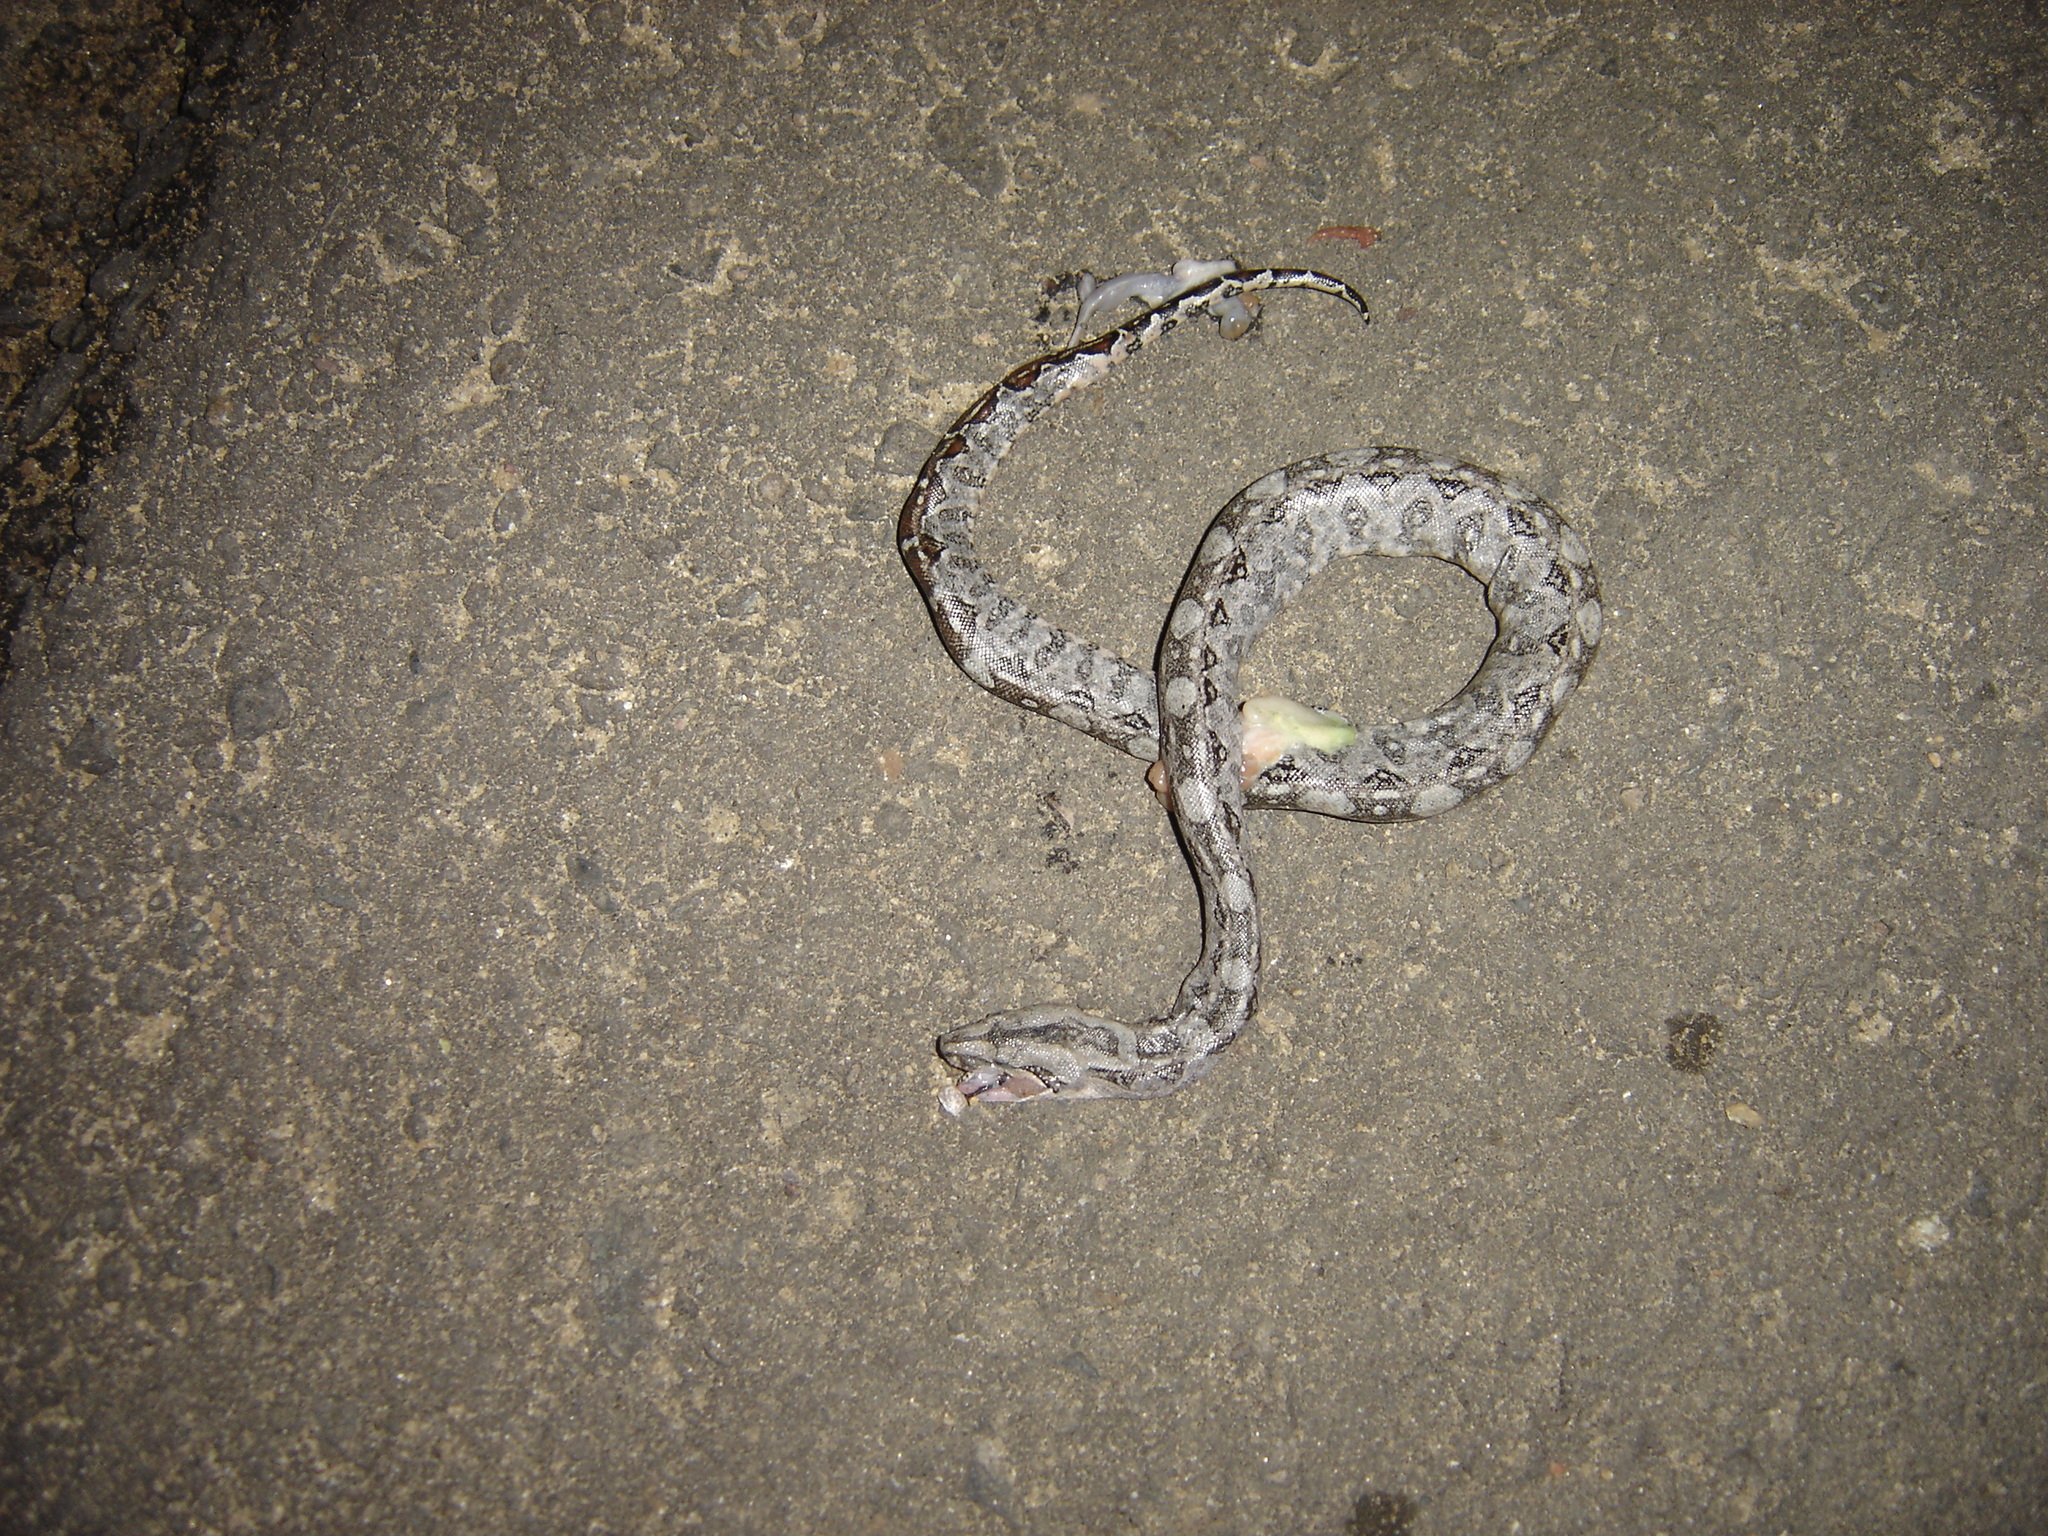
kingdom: Animalia
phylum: Chordata
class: Squamata
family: Boidae
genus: Boa
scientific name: Boa
